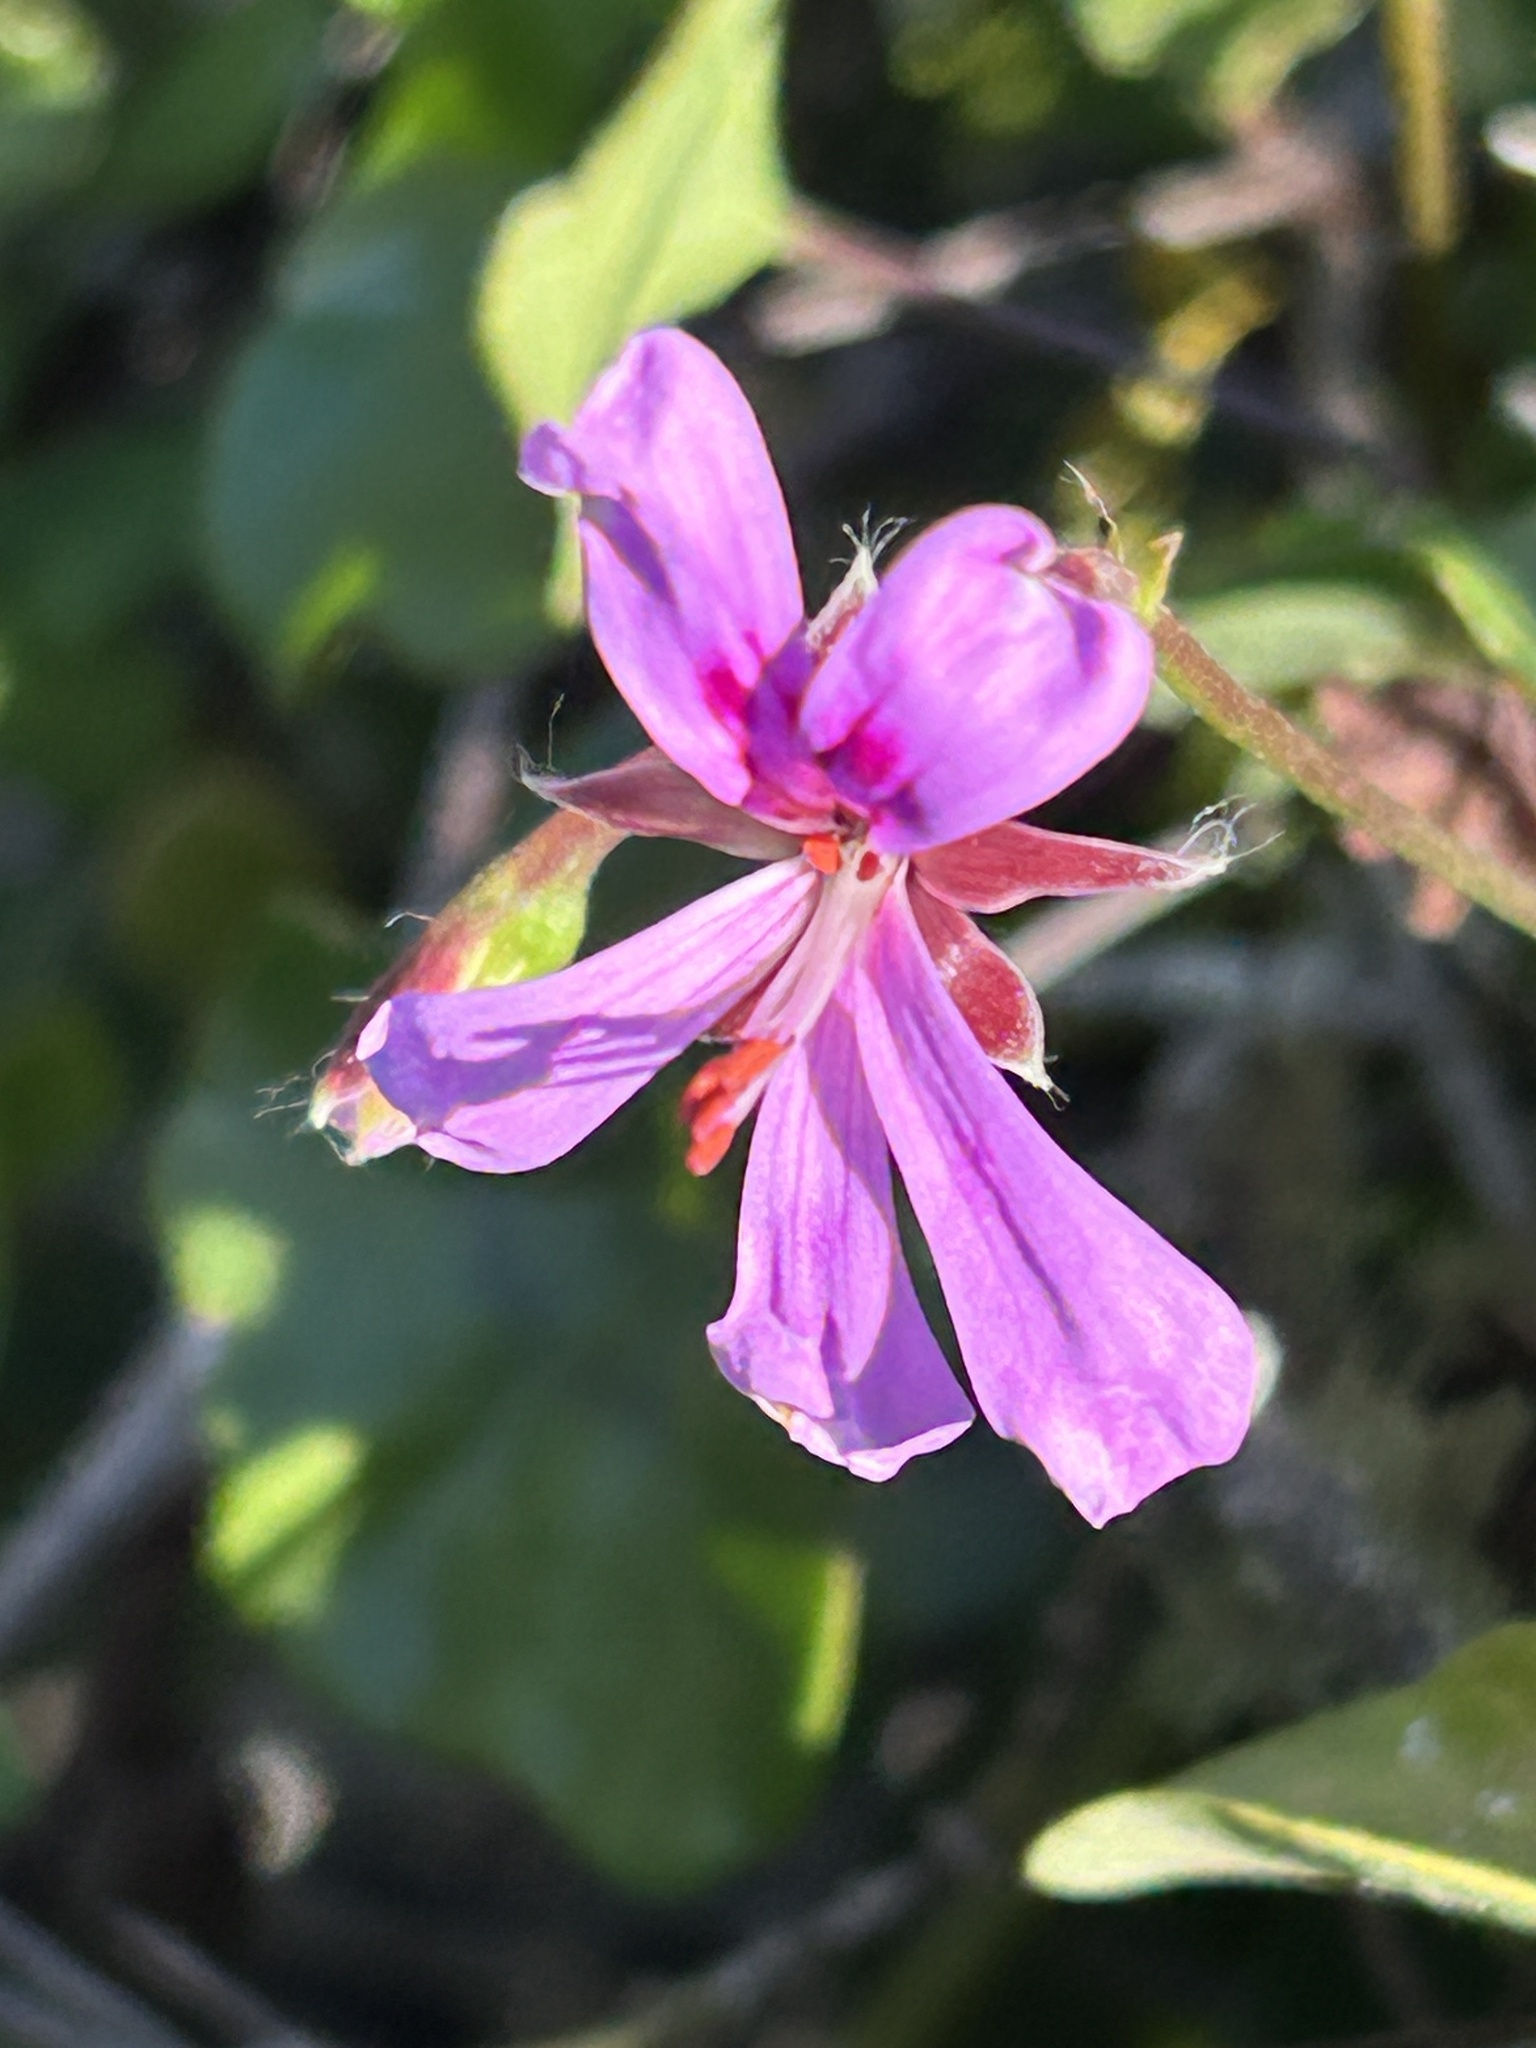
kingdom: Plantae
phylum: Tracheophyta
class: Magnoliopsida
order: Geraniales
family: Geraniaceae
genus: Pelargonium
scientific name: Pelargonium peltatum
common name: Ivyleaf geranium
